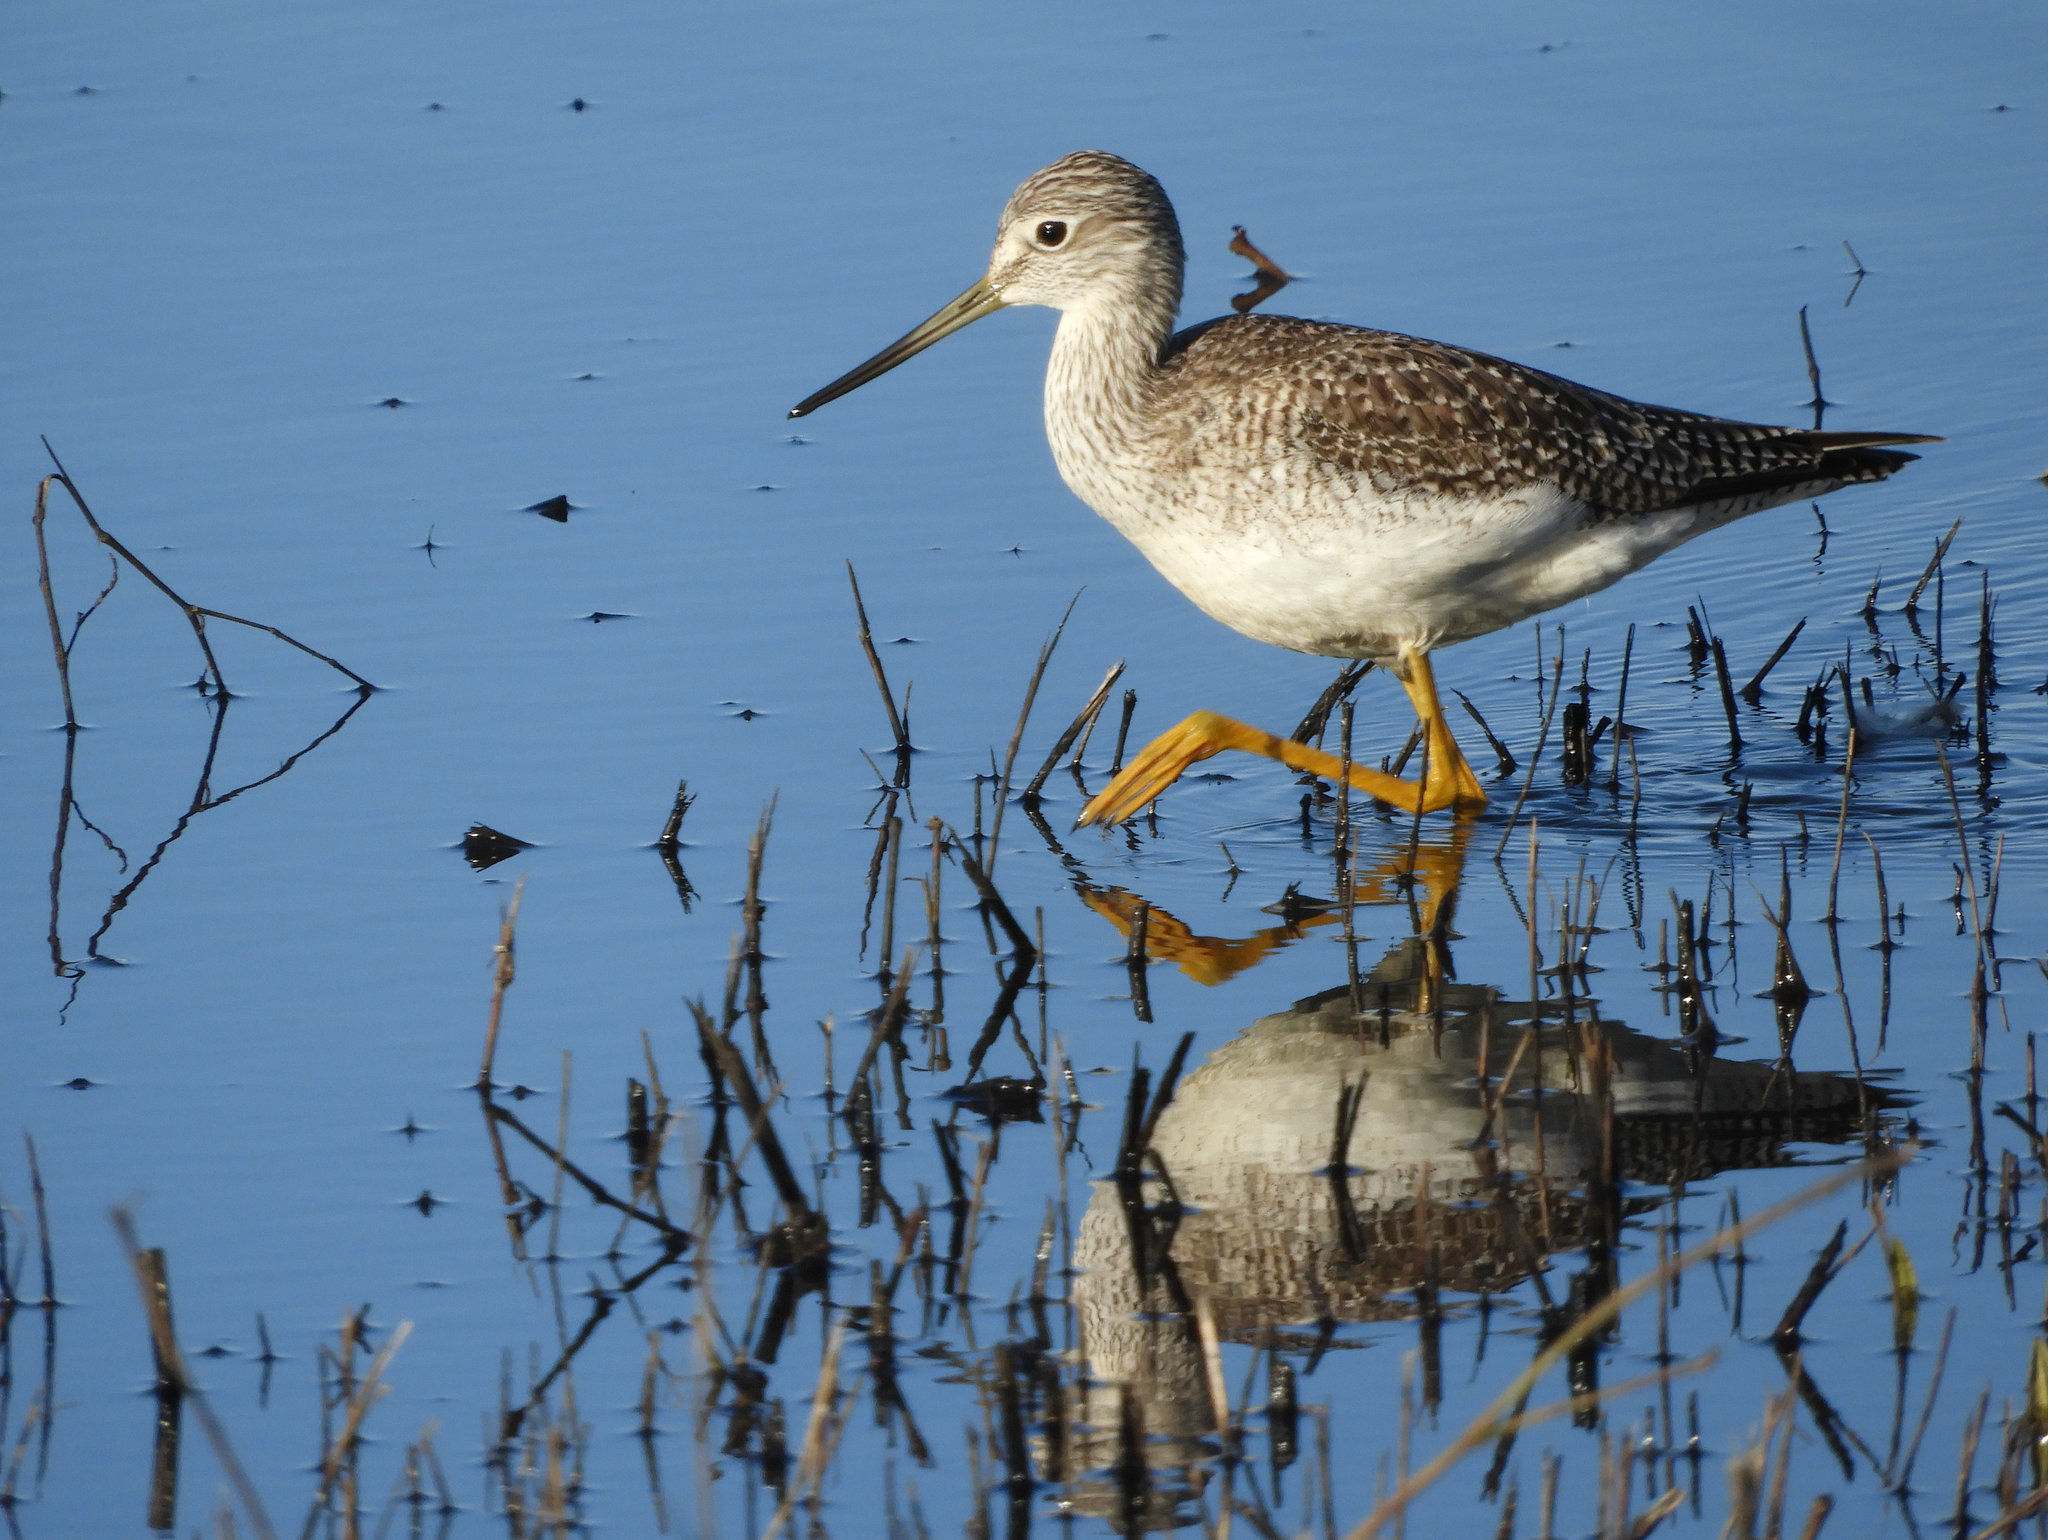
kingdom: Animalia
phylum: Chordata
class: Aves
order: Charadriiformes
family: Scolopacidae
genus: Tringa
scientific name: Tringa melanoleuca
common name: Greater yellowlegs
